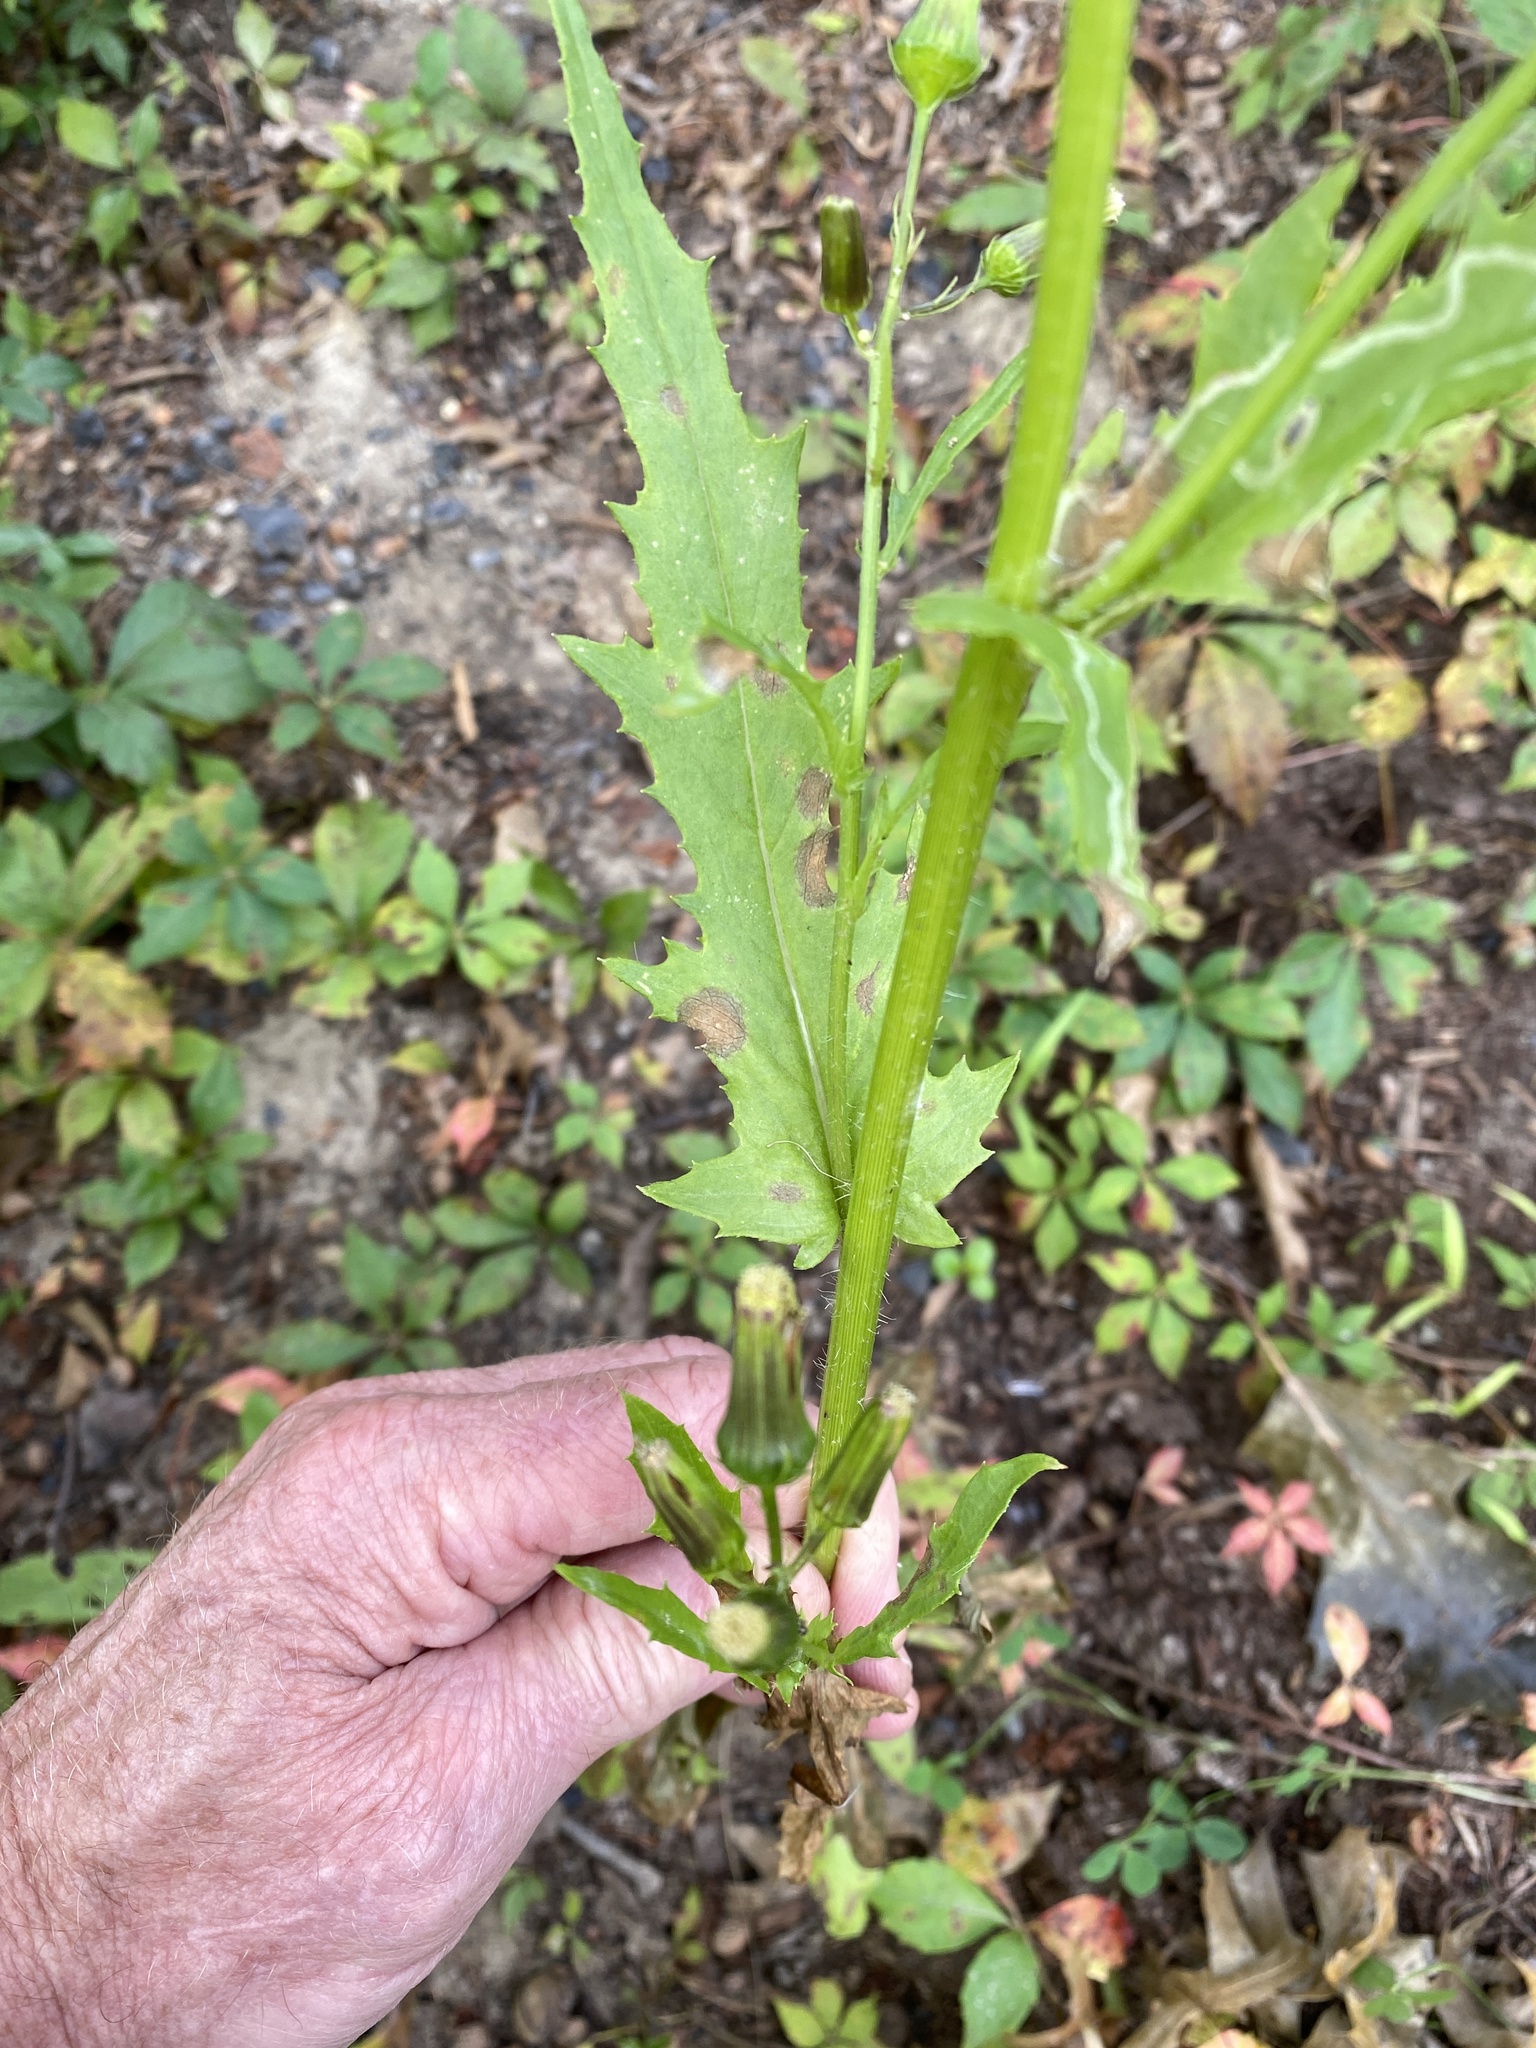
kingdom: Plantae
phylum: Tracheophyta
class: Magnoliopsida
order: Asterales
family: Asteraceae
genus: Erechtites
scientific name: Erechtites hieraciifolius
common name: American burnweed
